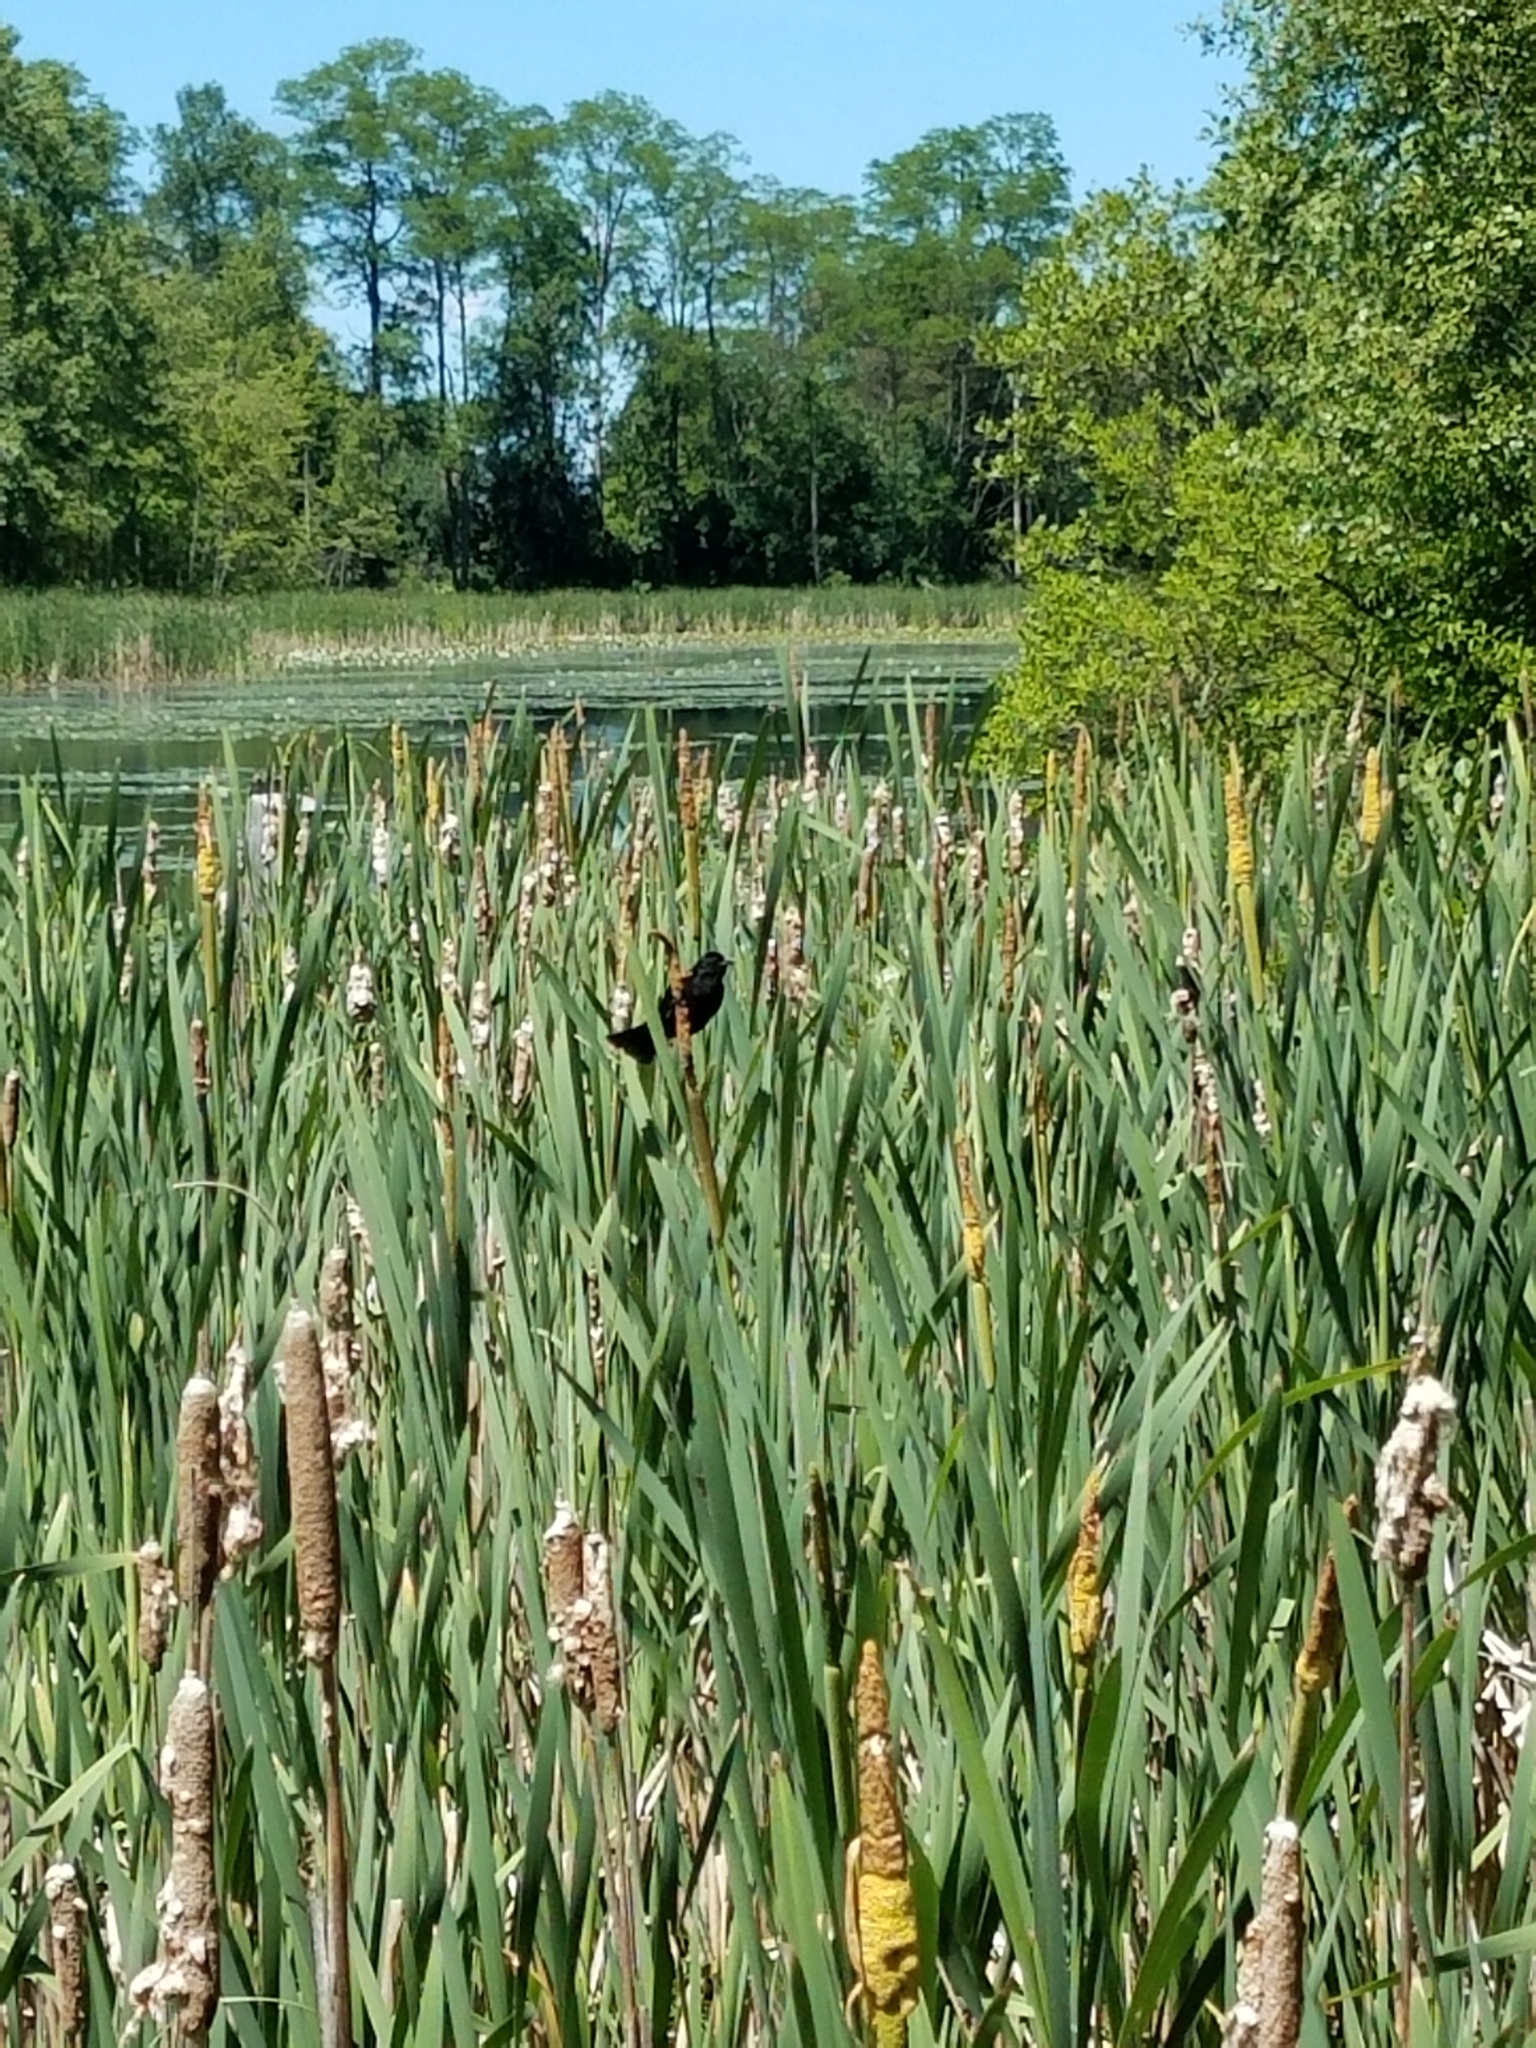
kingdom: Animalia
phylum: Chordata
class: Aves
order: Passeriformes
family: Icteridae
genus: Agelaius
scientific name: Agelaius phoeniceus
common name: Red-winged blackbird
